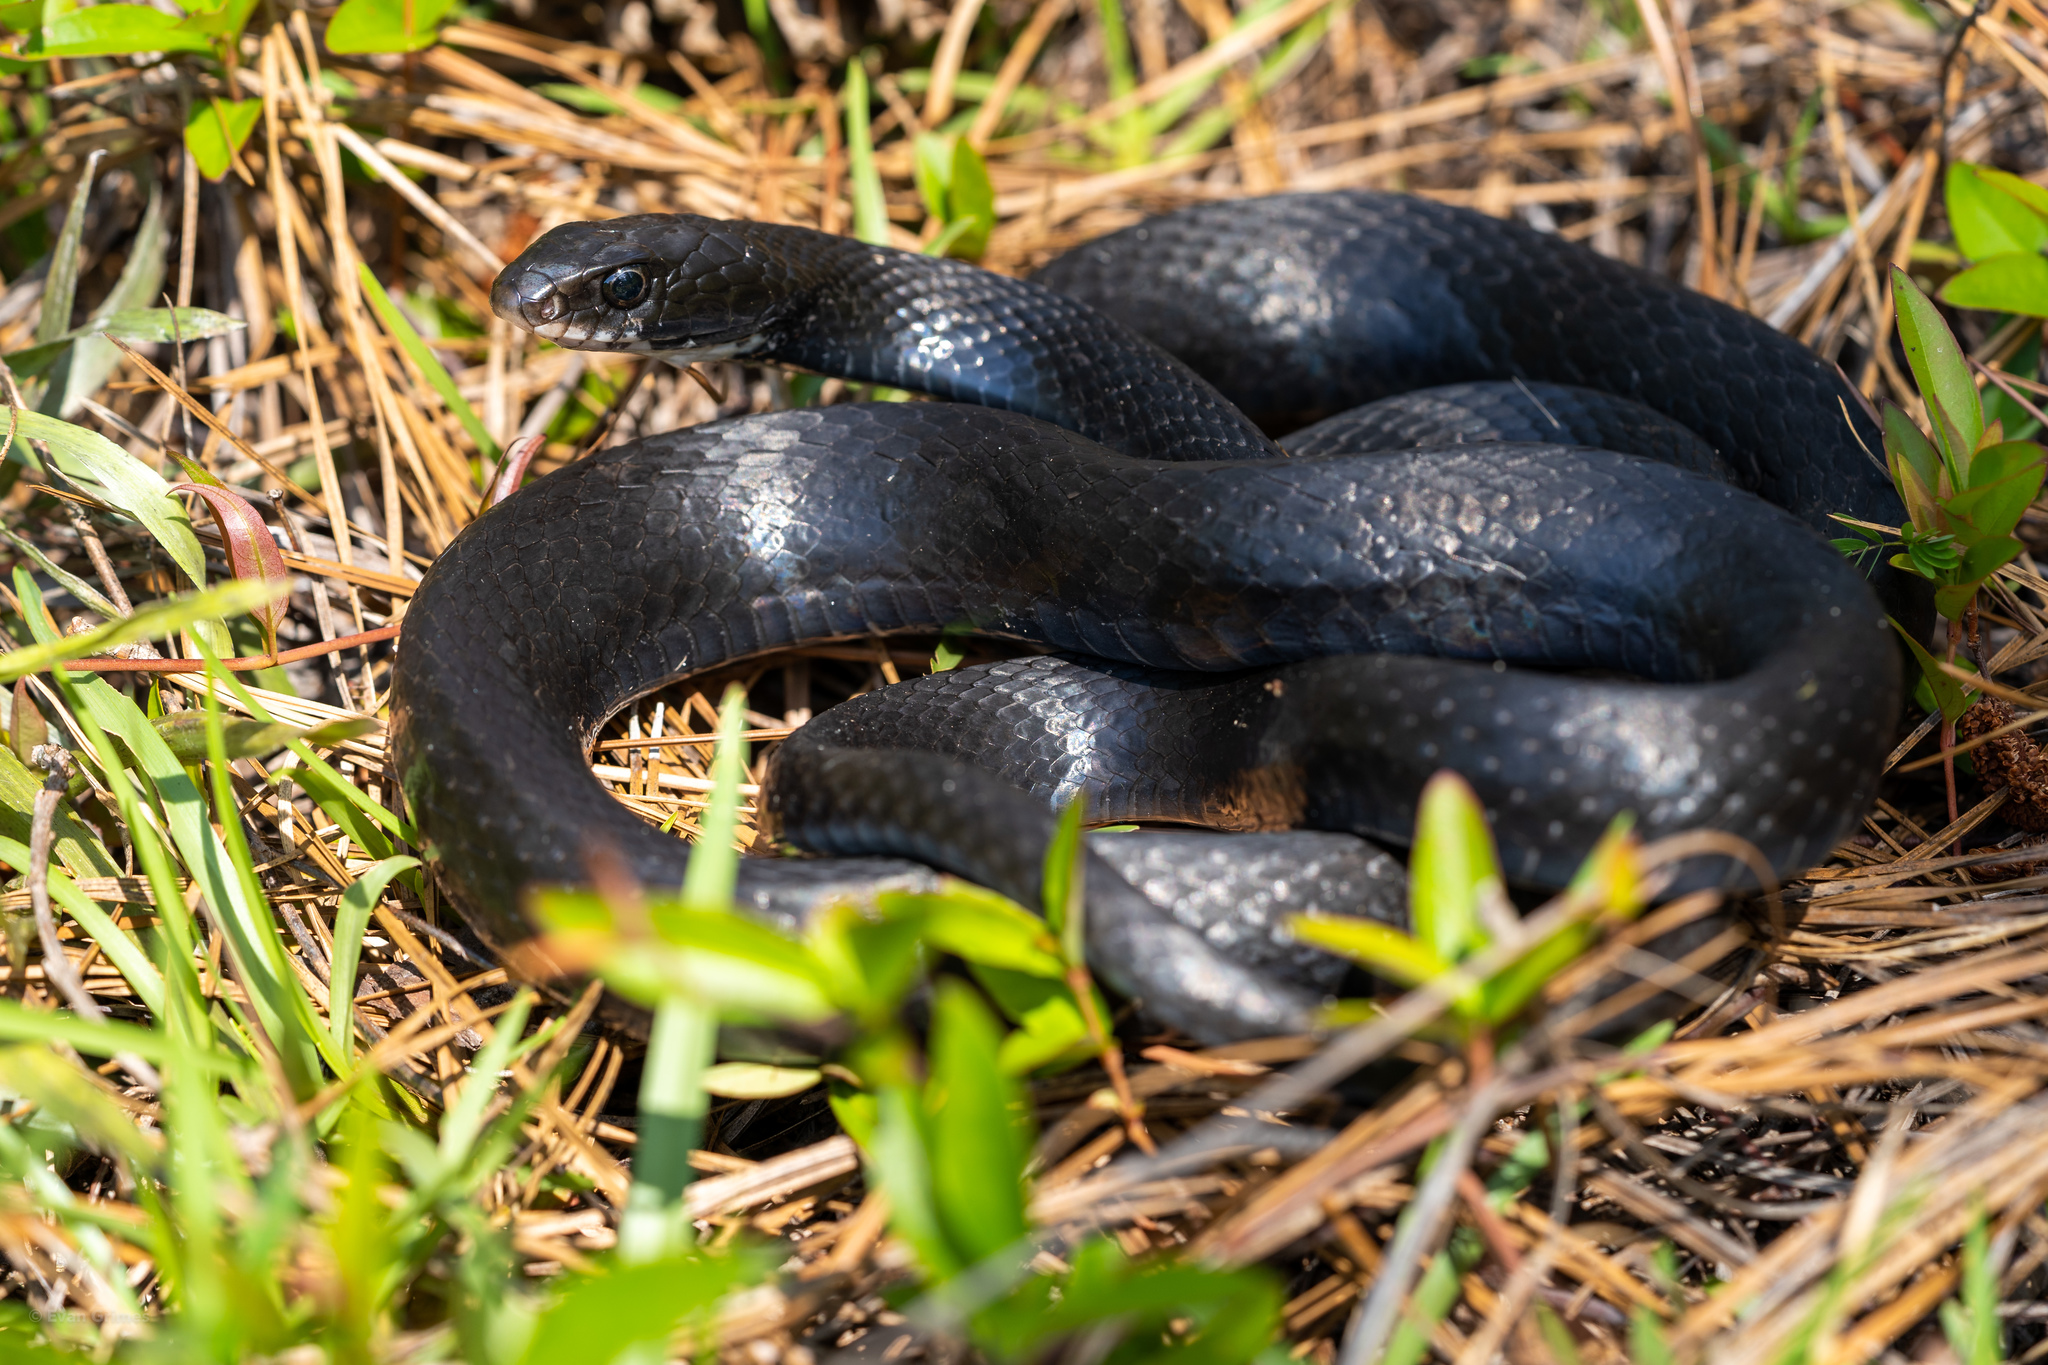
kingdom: Animalia
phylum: Chordata
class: Squamata
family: Colubridae
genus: Coluber
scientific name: Coluber constrictor
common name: Eastern racer
